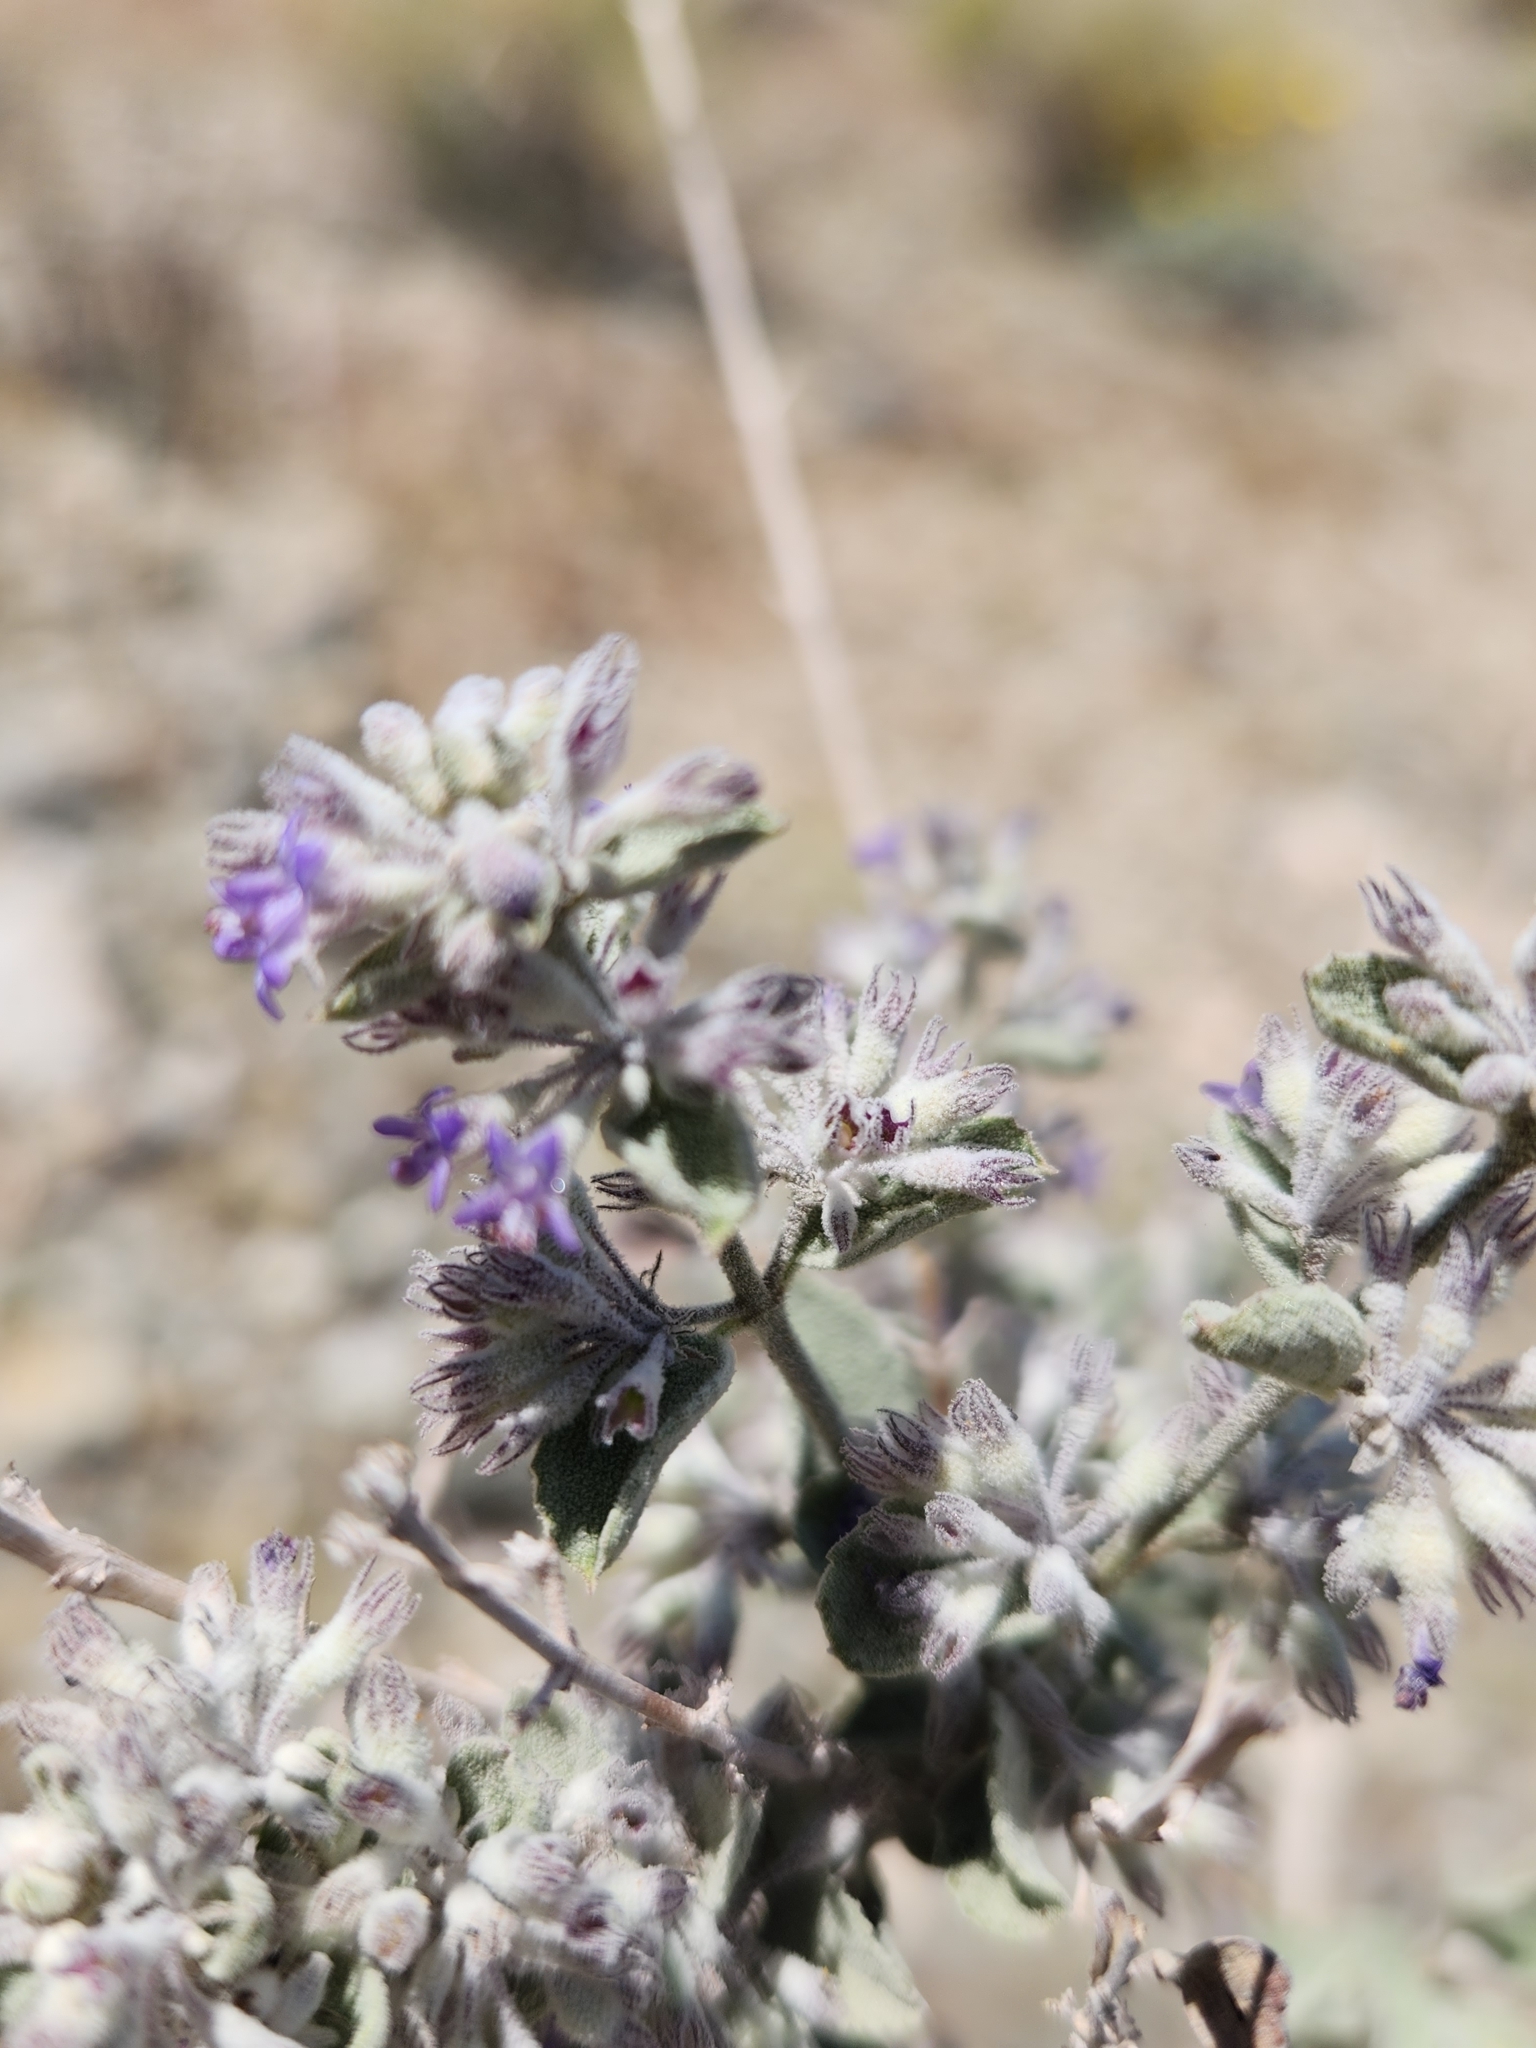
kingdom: Plantae
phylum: Tracheophyta
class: Magnoliopsida
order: Lamiales
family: Lamiaceae
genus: Condea
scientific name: Condea emoryi
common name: Chia
